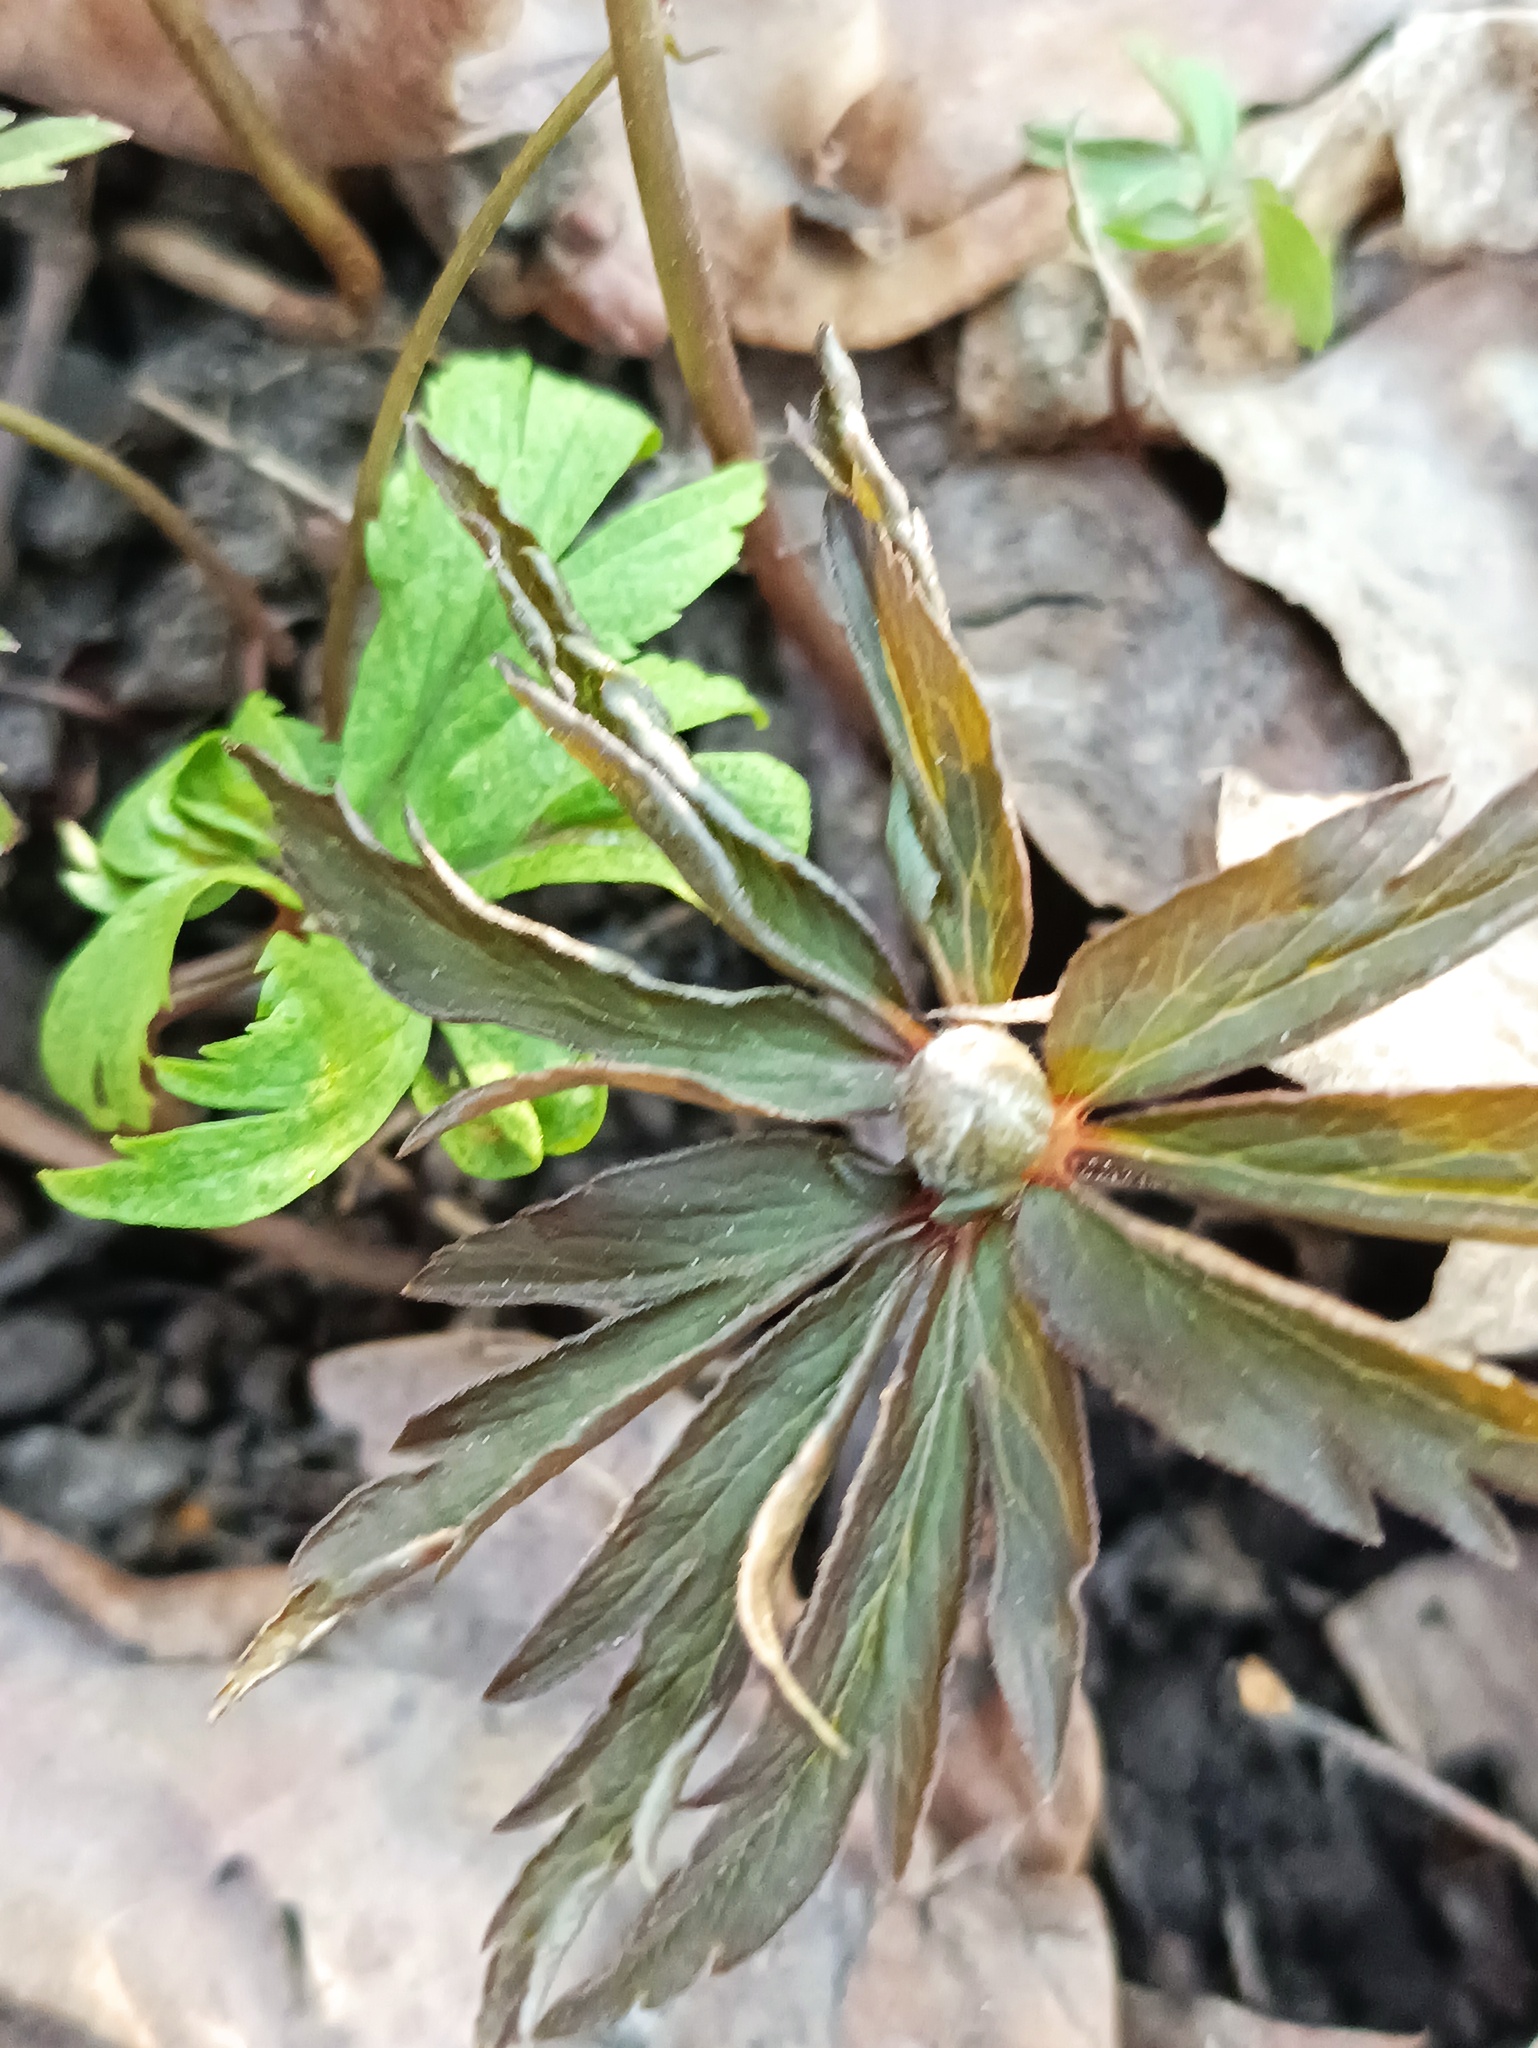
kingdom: Plantae
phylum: Tracheophyta
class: Magnoliopsida
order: Ranunculales
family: Ranunculaceae
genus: Anemone
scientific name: Anemone ranunculoides
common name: Yellow anemone
